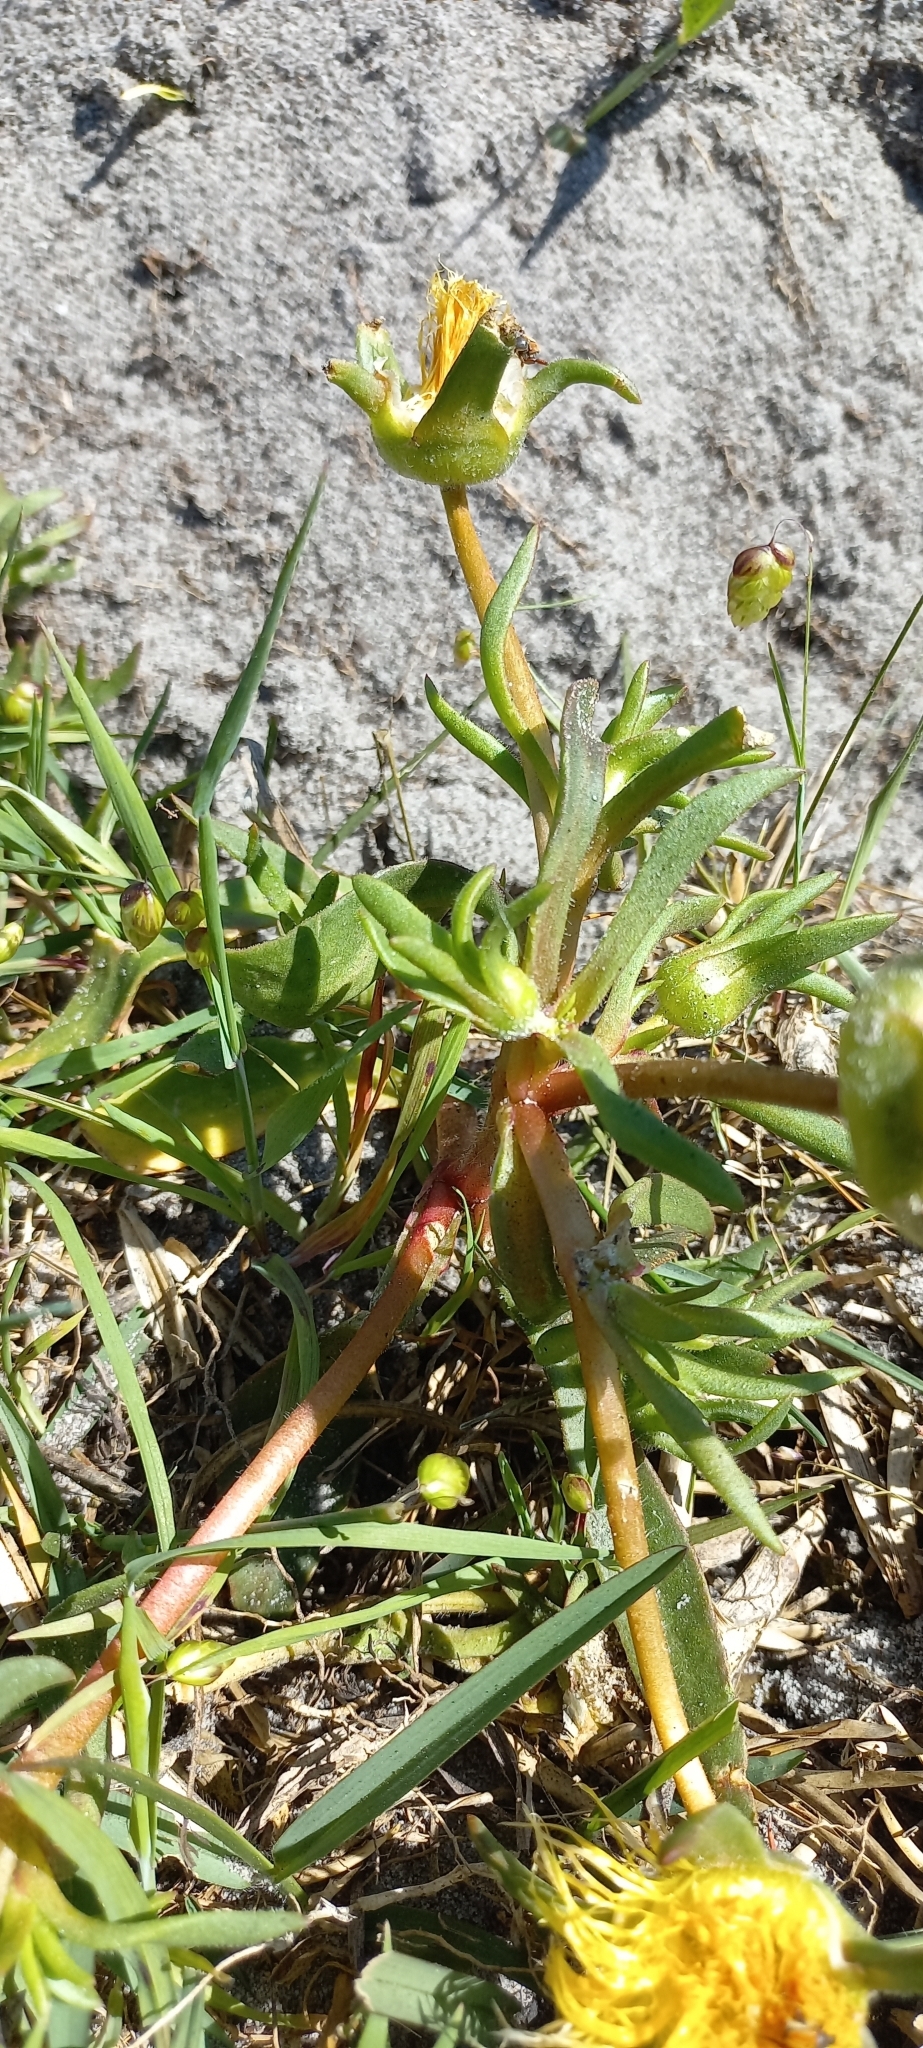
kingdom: Plantae
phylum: Tracheophyta
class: Magnoliopsida
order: Caryophyllales
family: Aizoaceae
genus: Carpanthea
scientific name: Carpanthea pomeridiana
